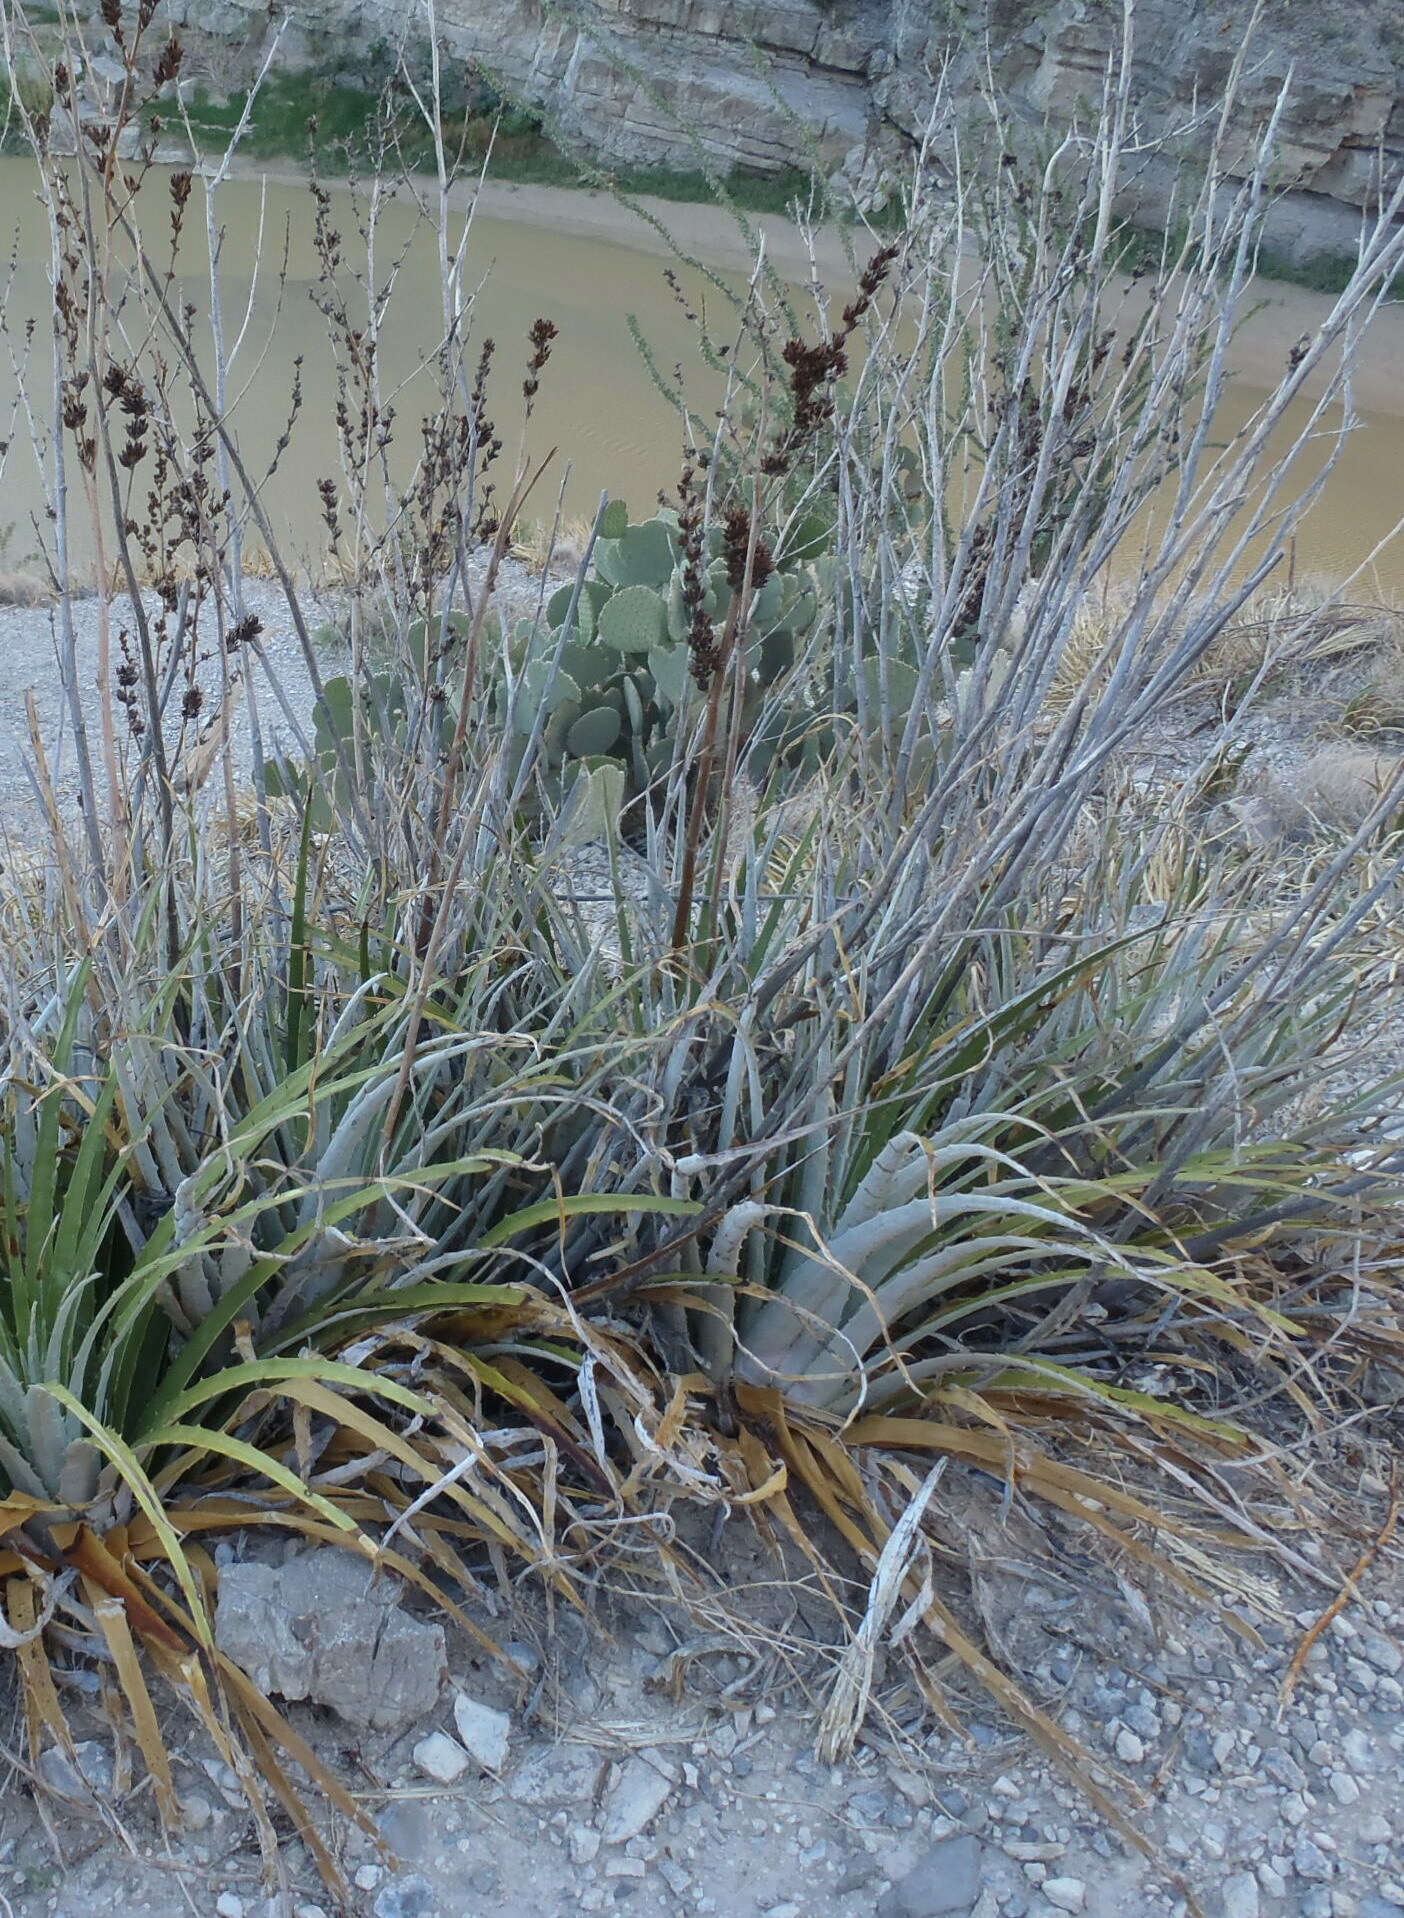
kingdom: Plantae
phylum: Tracheophyta
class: Liliopsida
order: Poales
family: Bromeliaceae
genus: Hechtia
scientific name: Hechtia texensis
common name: False agave
